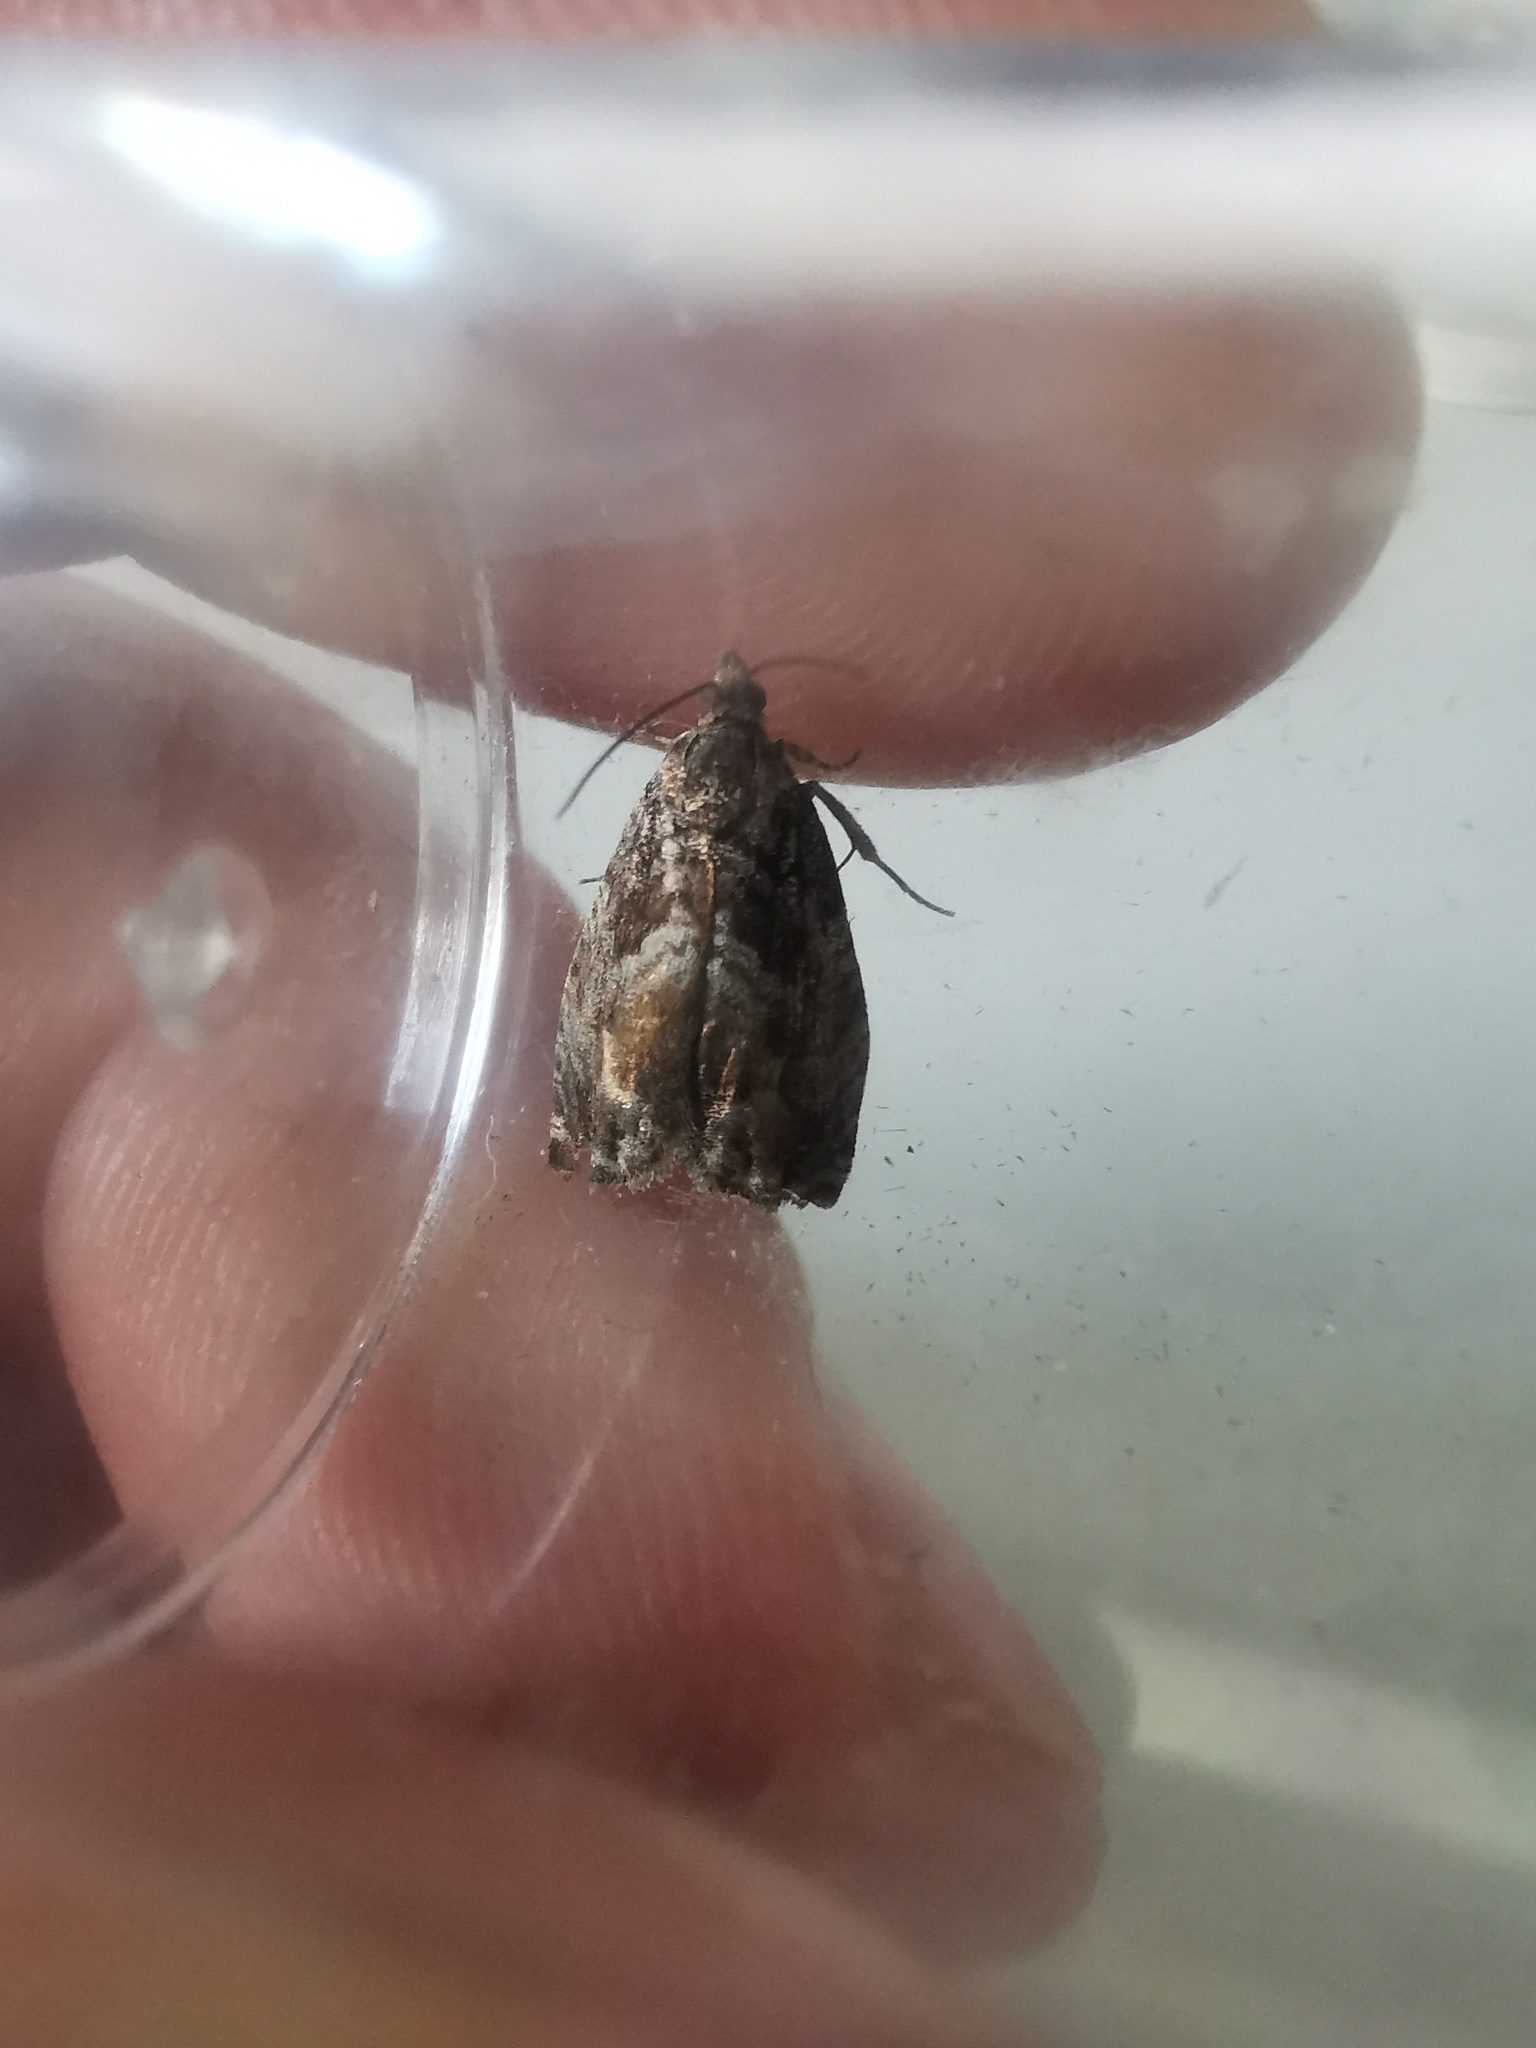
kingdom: Animalia
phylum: Arthropoda
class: Insecta
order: Lepidoptera
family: Tortricidae
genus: Cydia
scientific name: Cydia fagiglandana
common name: Large beech piercer
